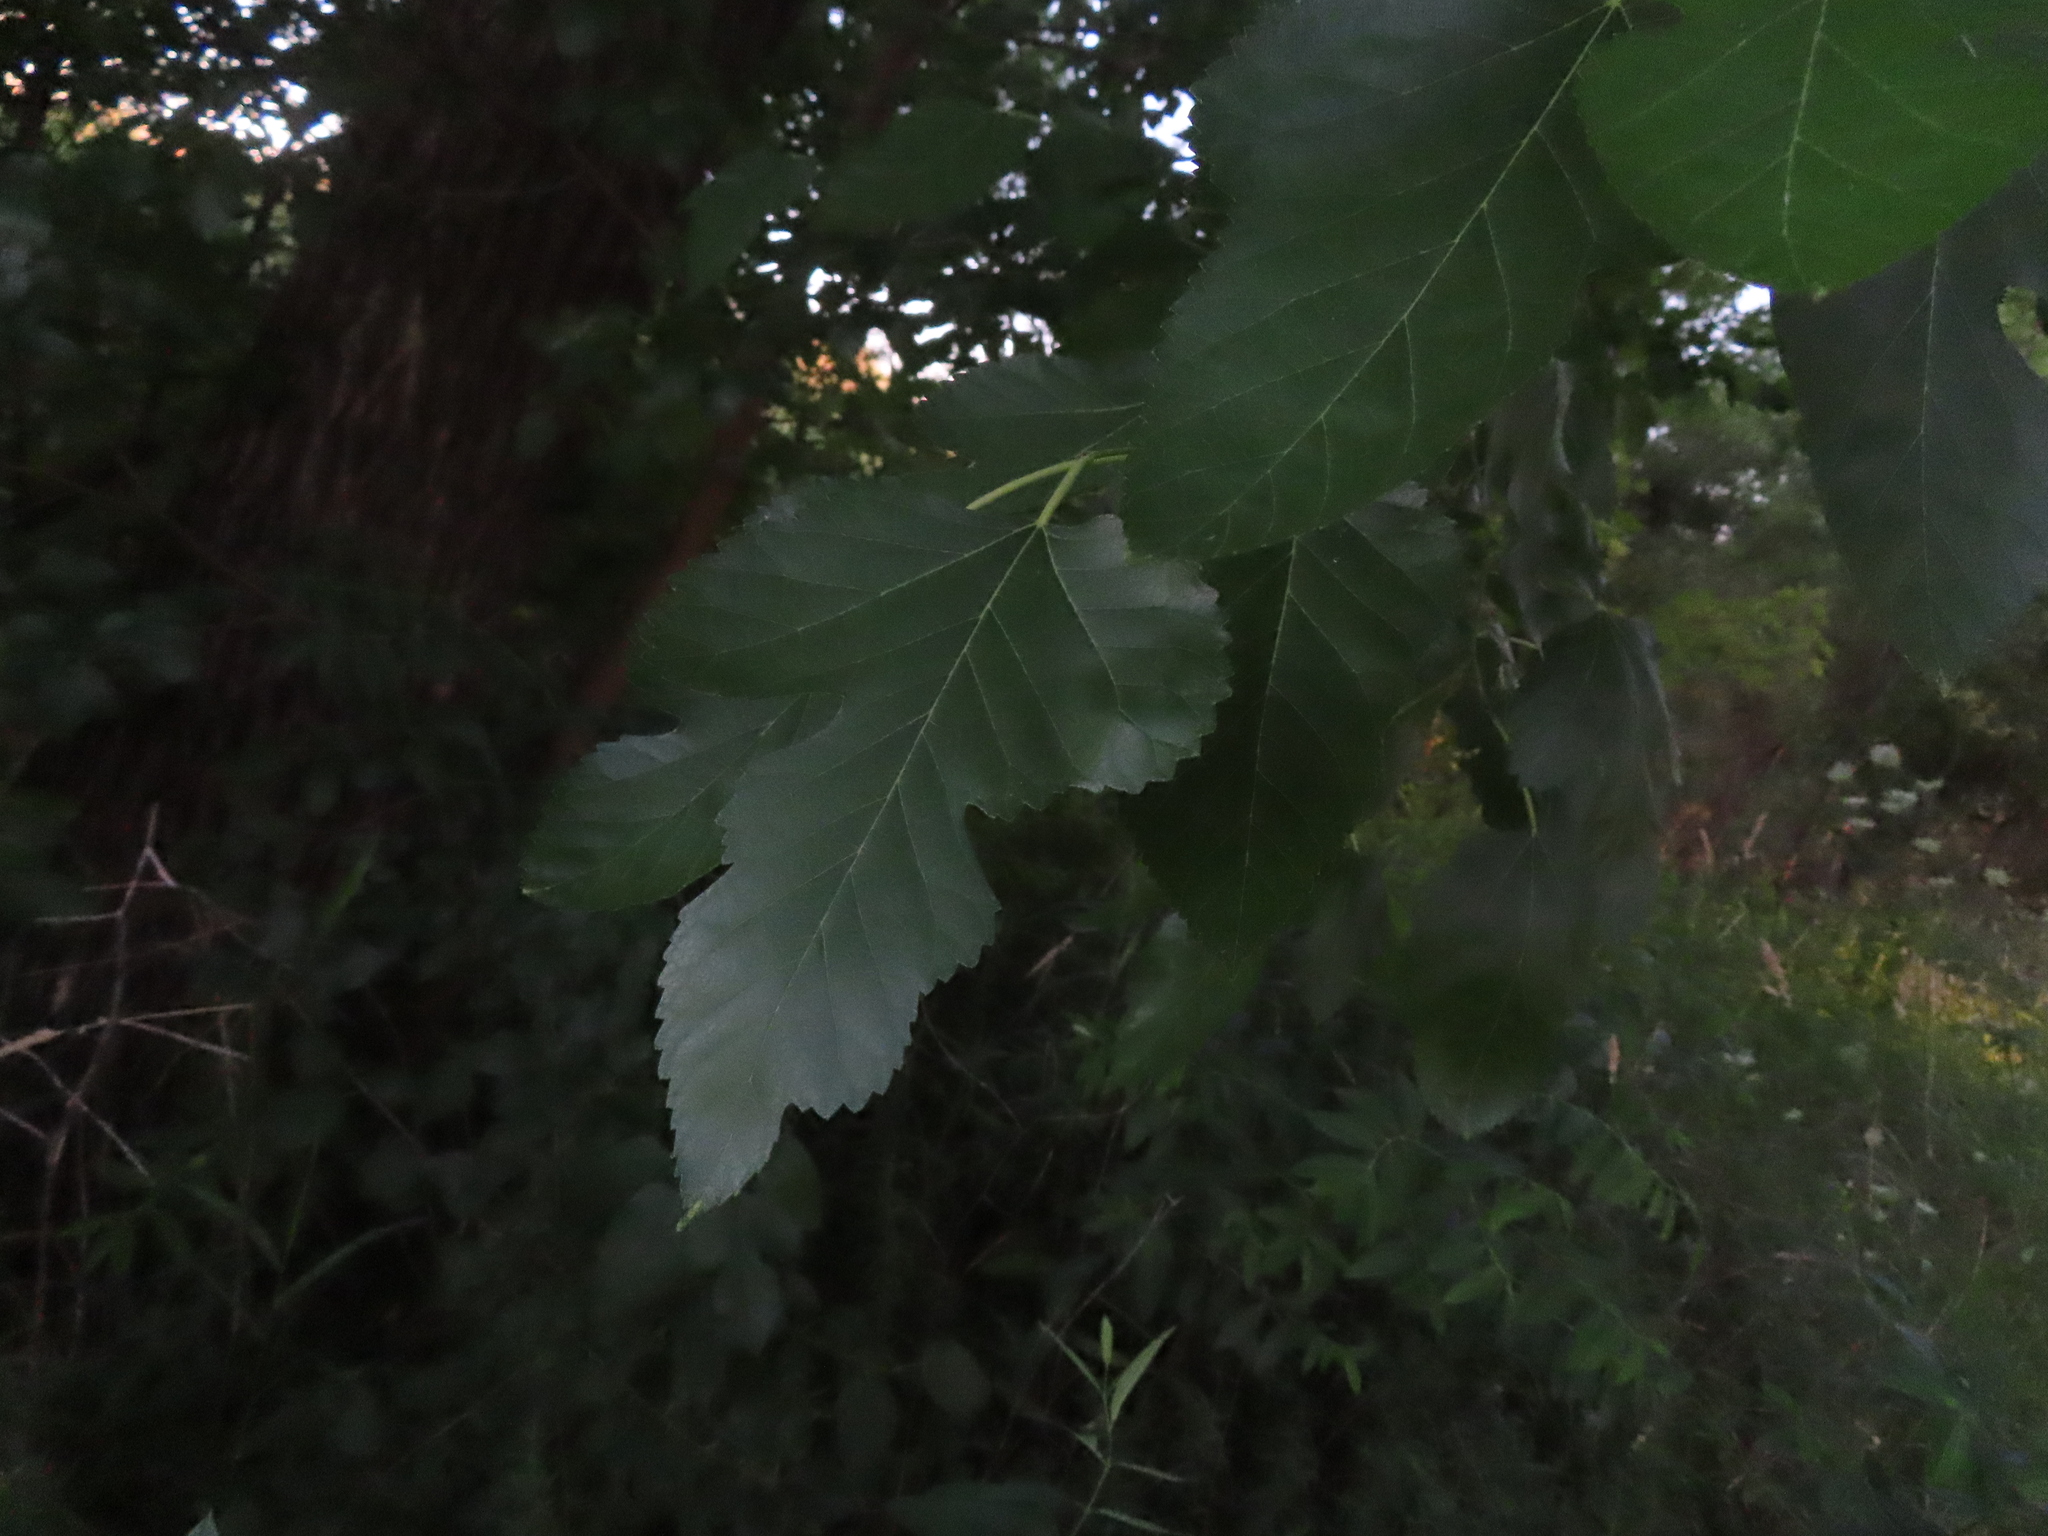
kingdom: Plantae
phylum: Tracheophyta
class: Magnoliopsida
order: Rosales
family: Moraceae
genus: Morus
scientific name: Morus alba
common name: White mulberry
